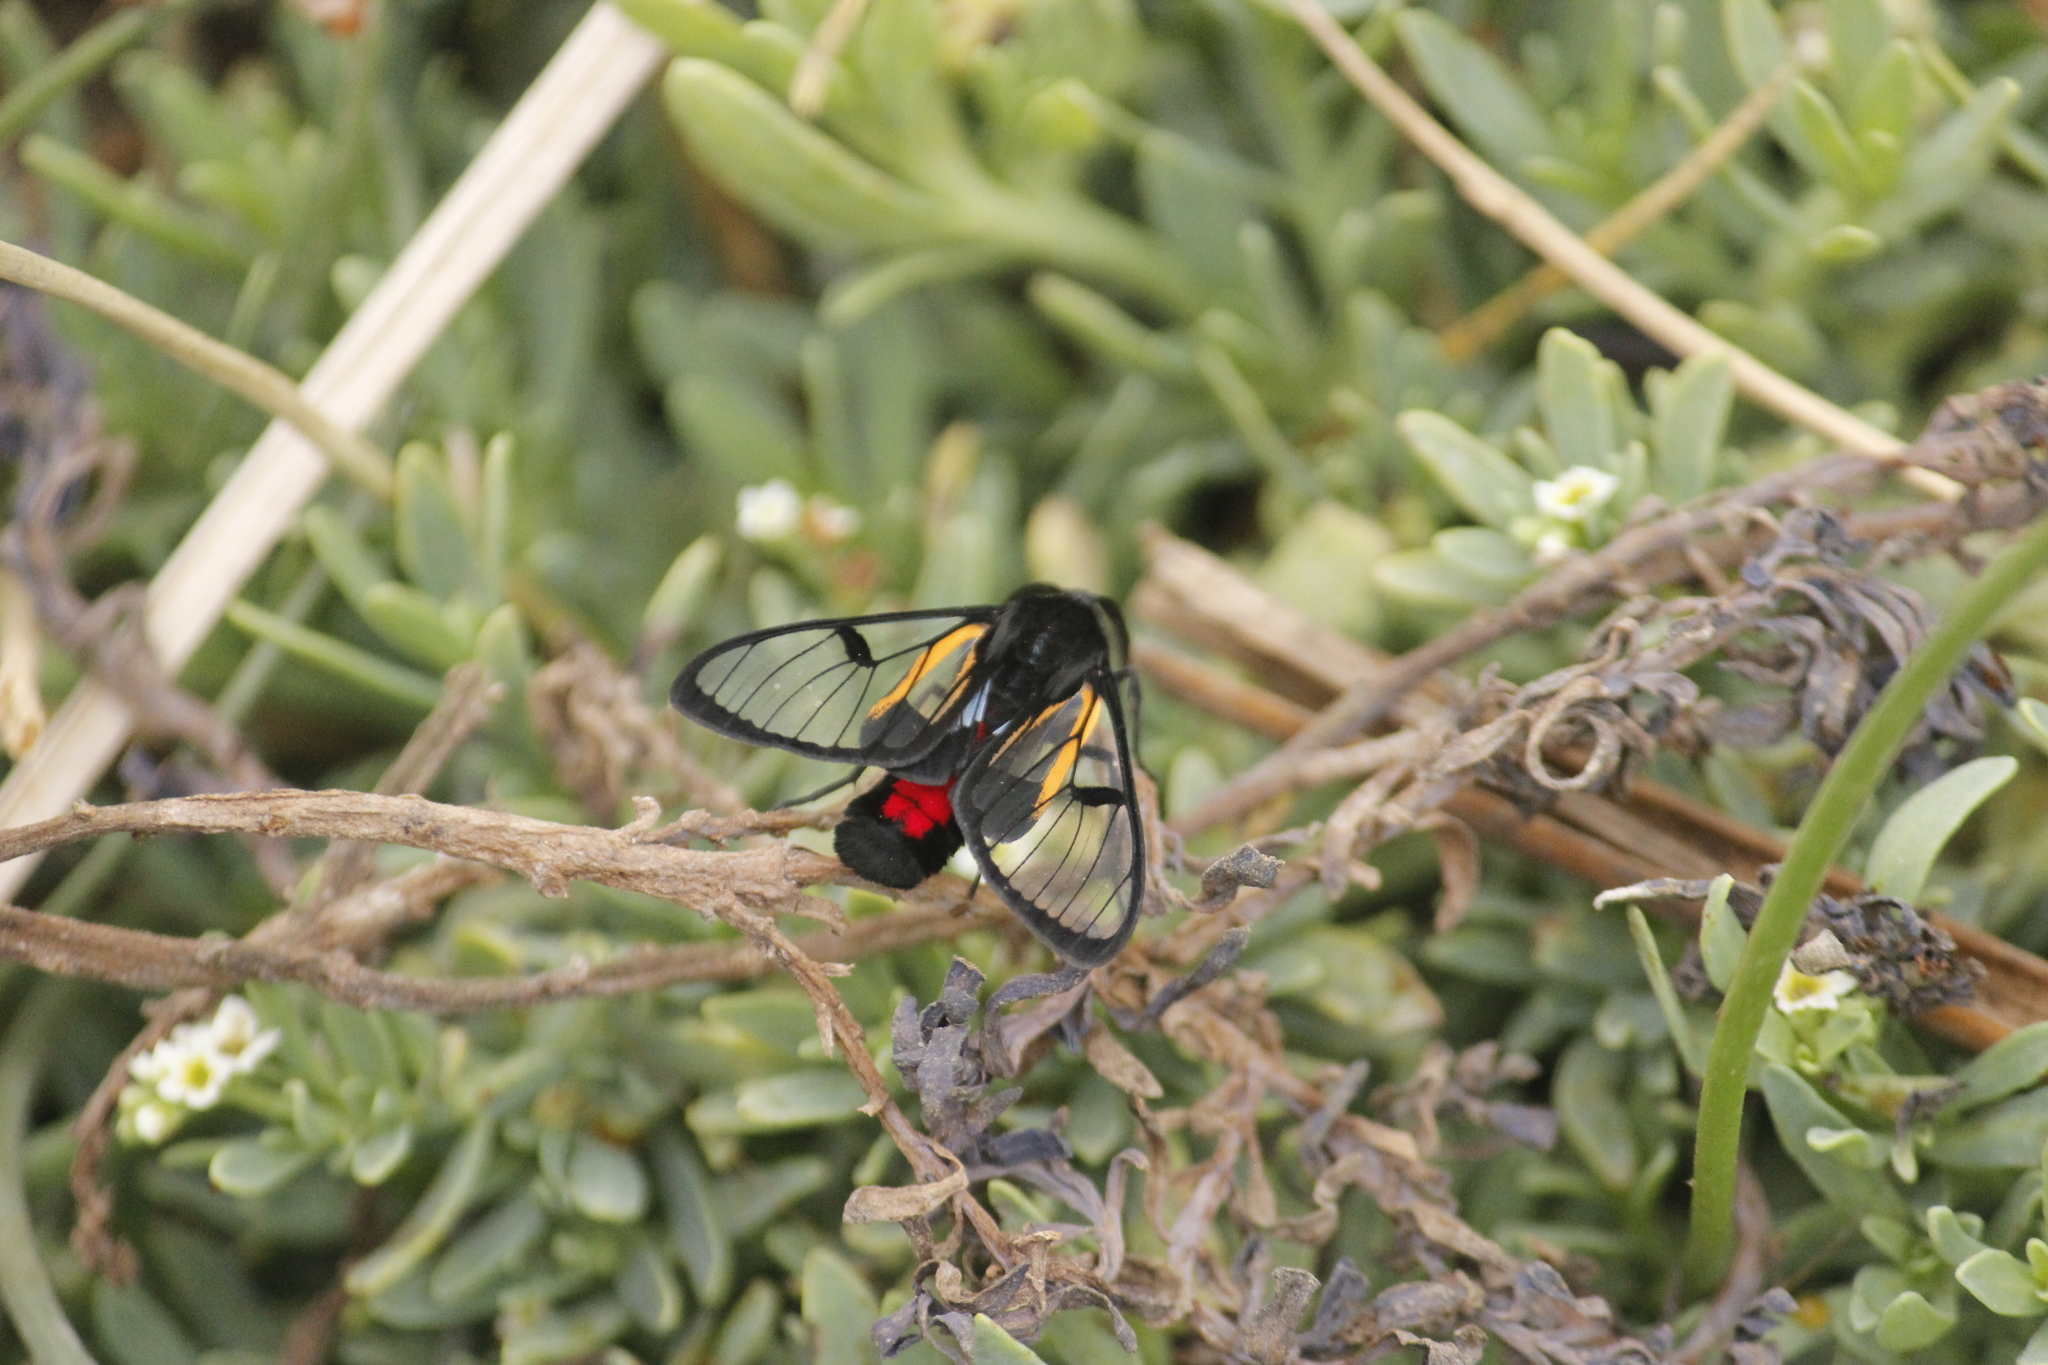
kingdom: Animalia
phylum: Arthropoda
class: Insecta
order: Lepidoptera
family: Erebidae
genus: Dinia
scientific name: Dinia subapicalis
